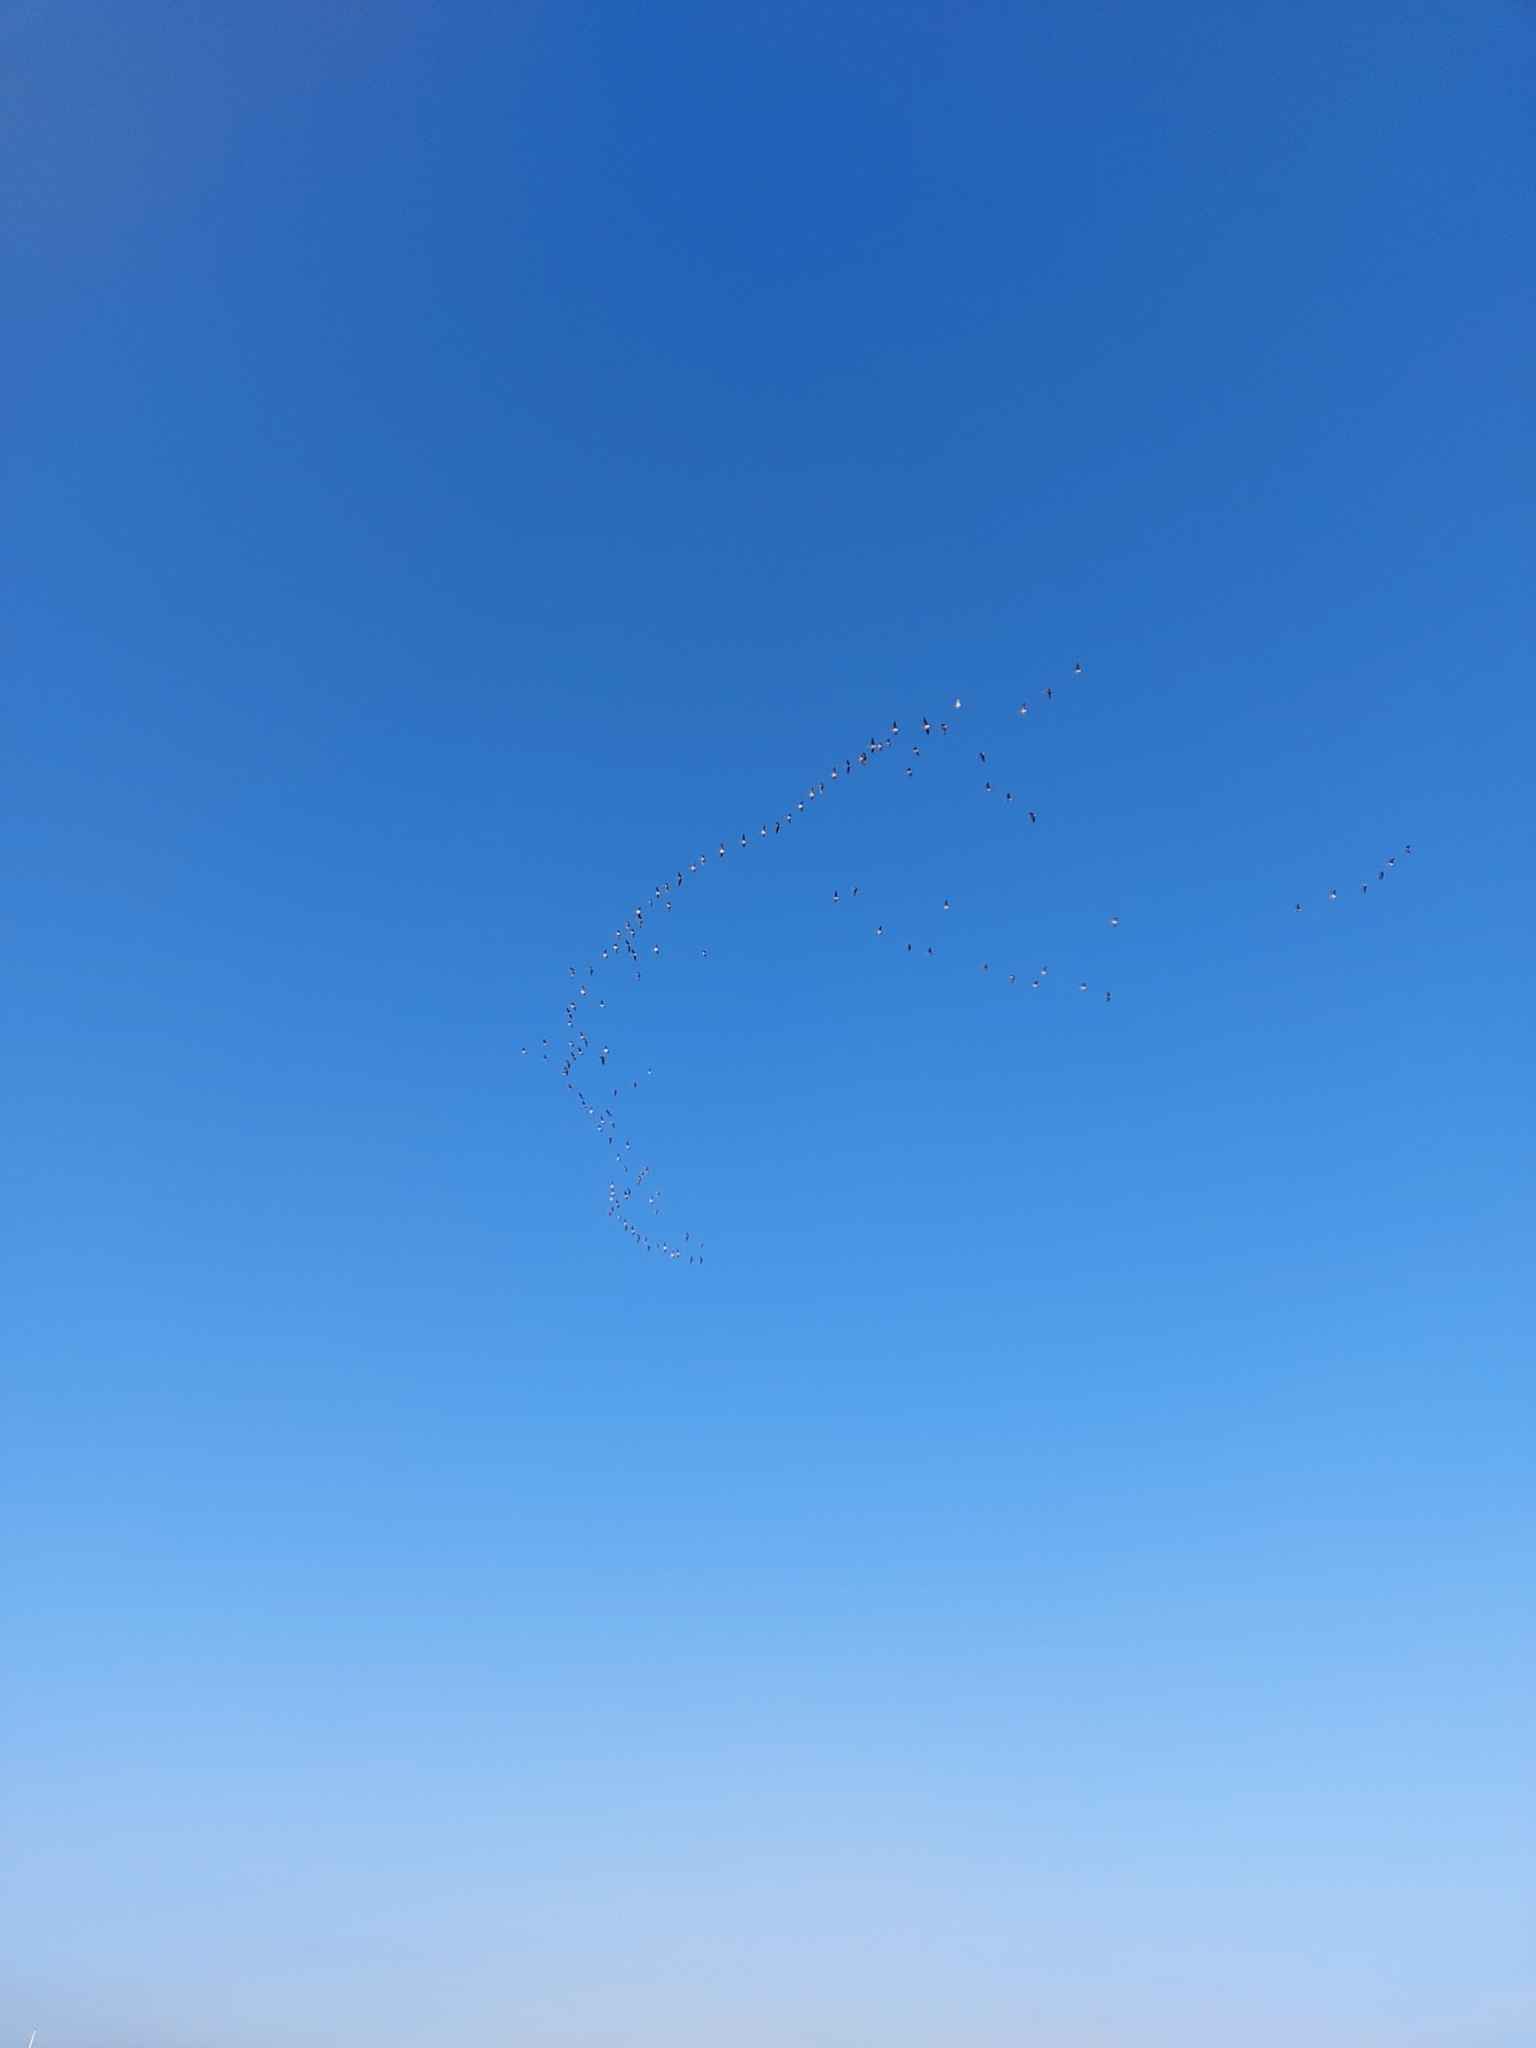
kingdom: Animalia
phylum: Chordata
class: Aves
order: Anseriformes
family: Anatidae
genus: Branta
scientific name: Branta leucopsis
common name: Barnacle goose
